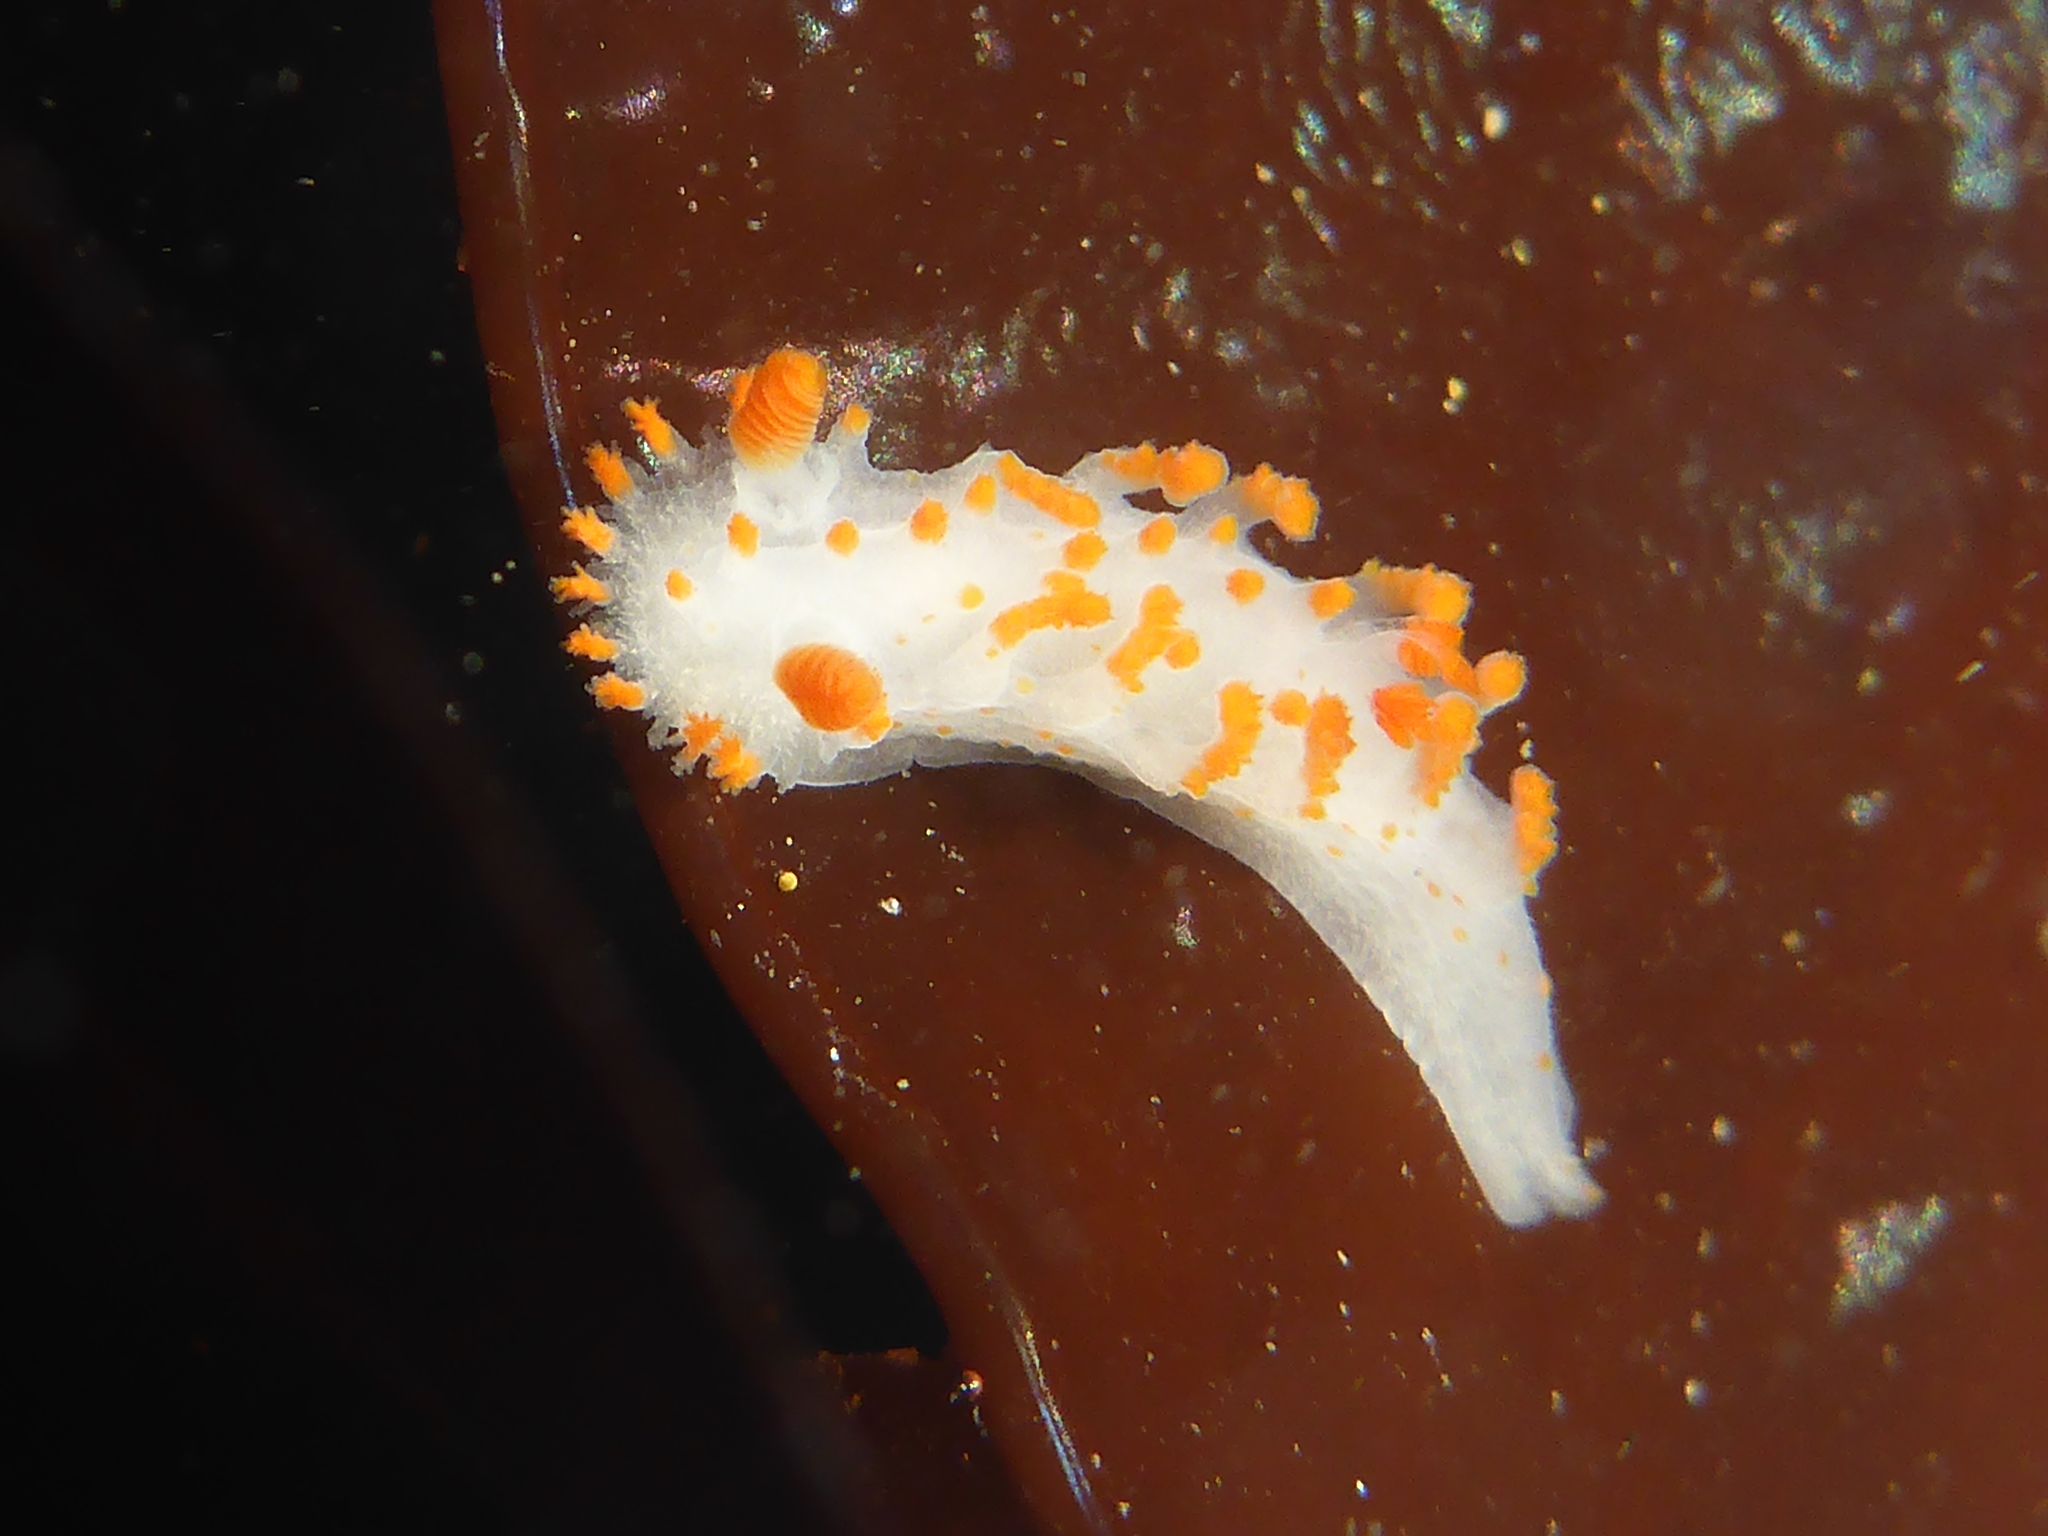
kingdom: Animalia
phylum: Mollusca
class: Gastropoda
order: Nudibranchia
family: Polyceridae
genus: Triopha
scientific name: Triopha catalinae
